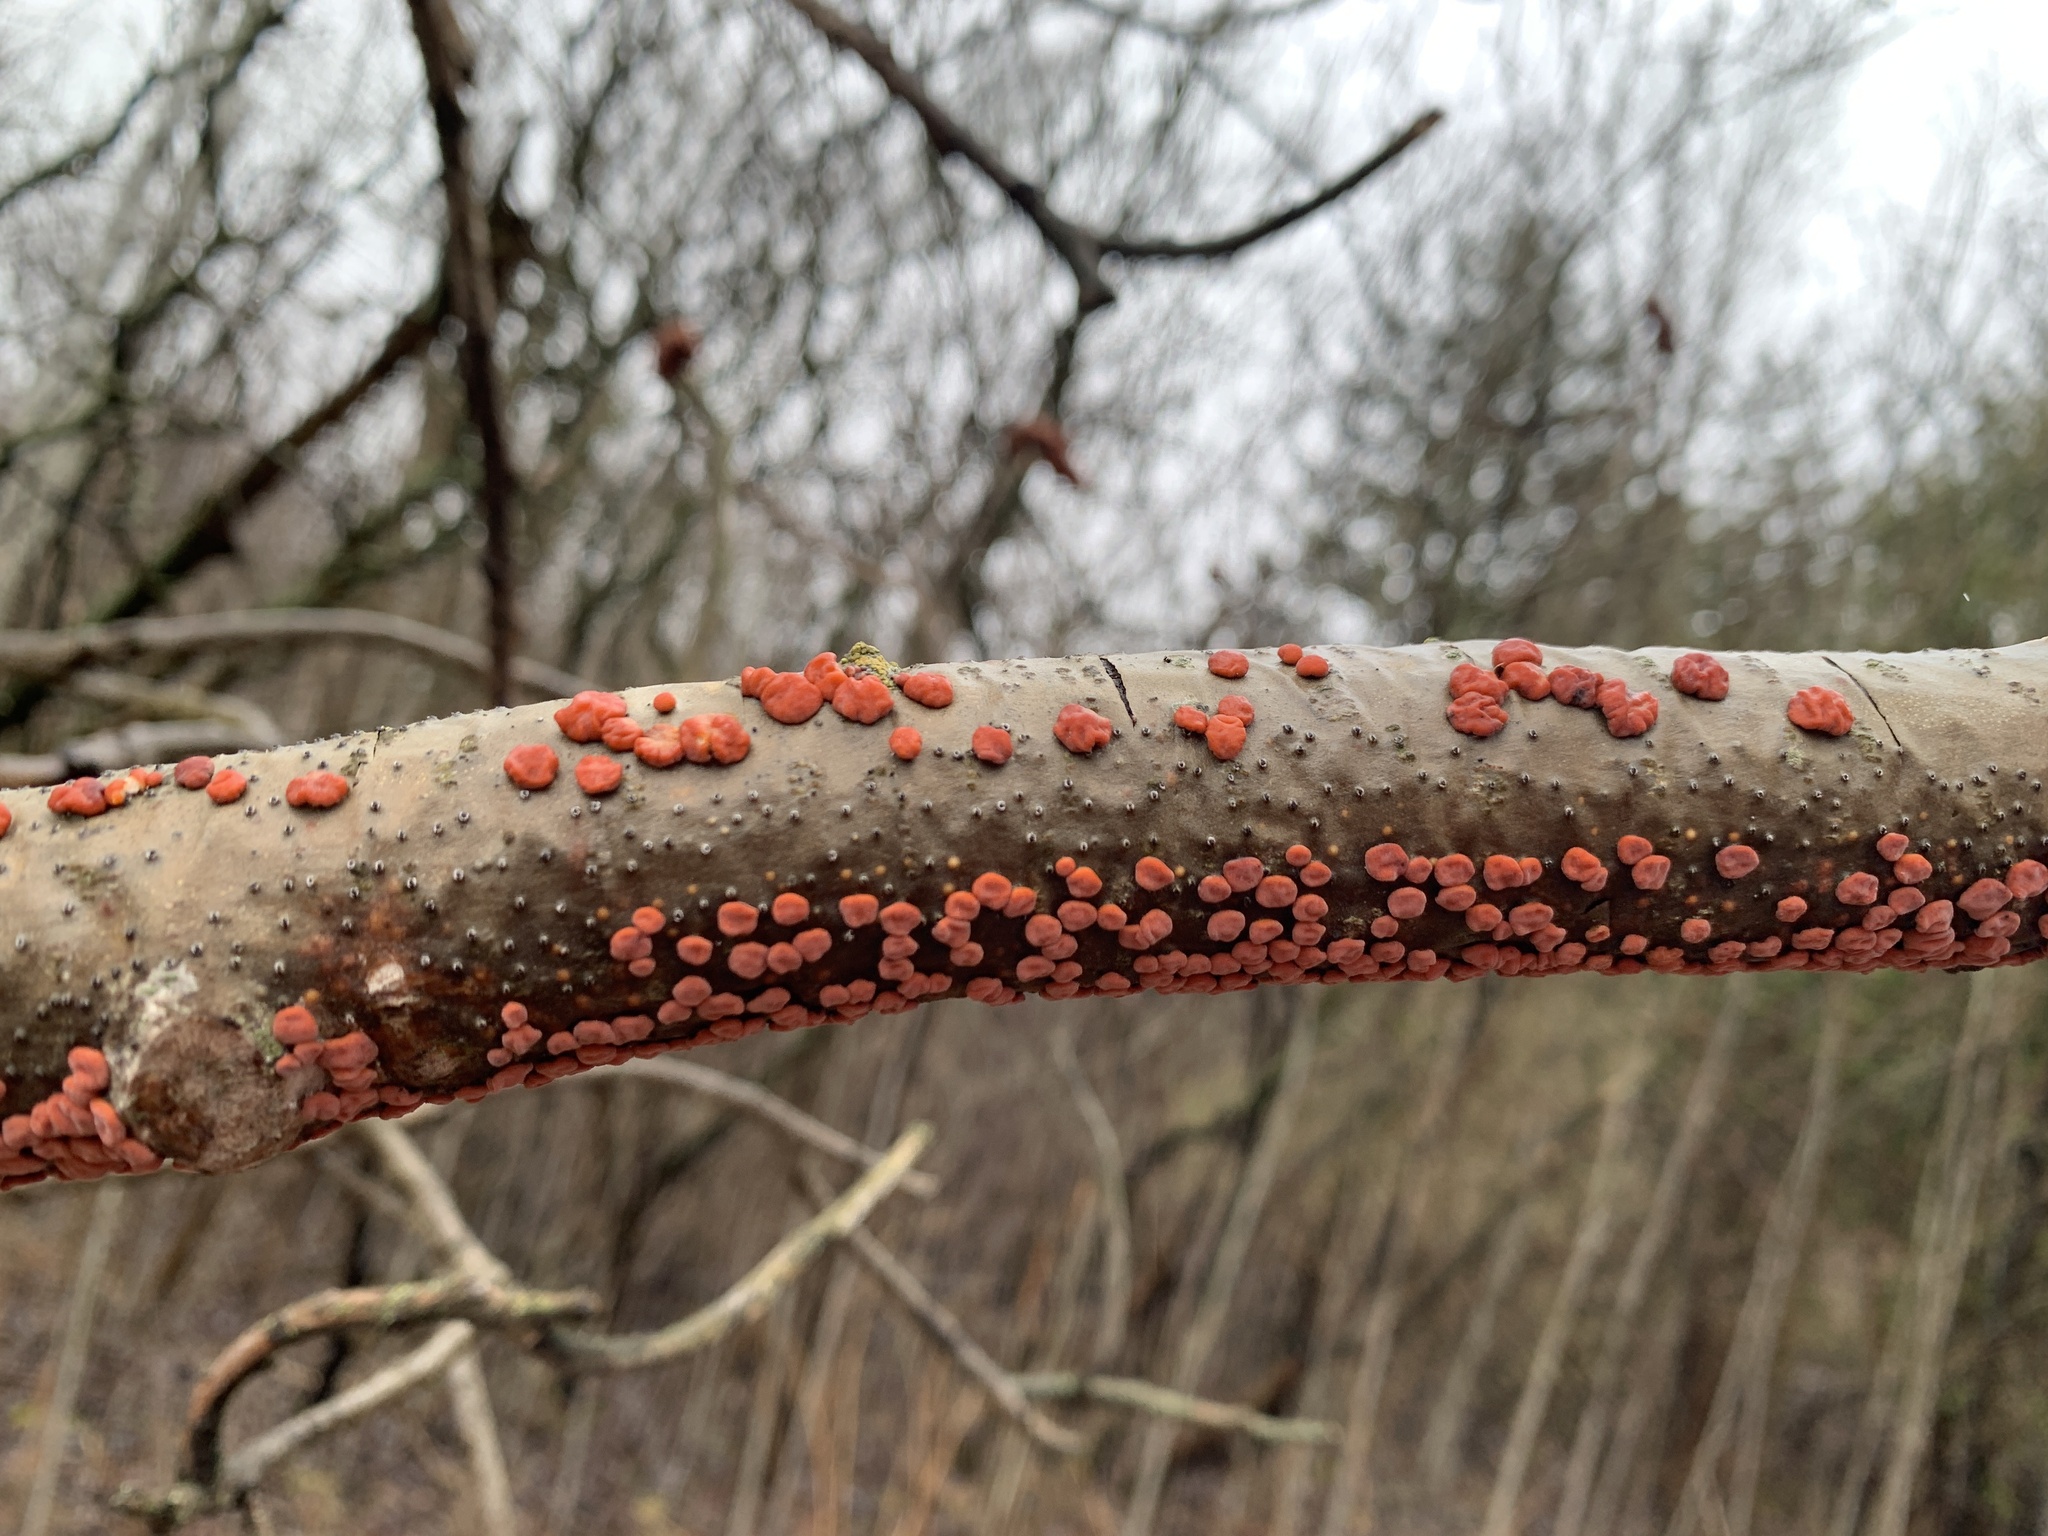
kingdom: Fungi
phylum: Basidiomycota
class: Agaricomycetes
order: Russulales
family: Peniophoraceae
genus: Peniophora
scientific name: Peniophora rufa
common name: Red tree brain fungus
